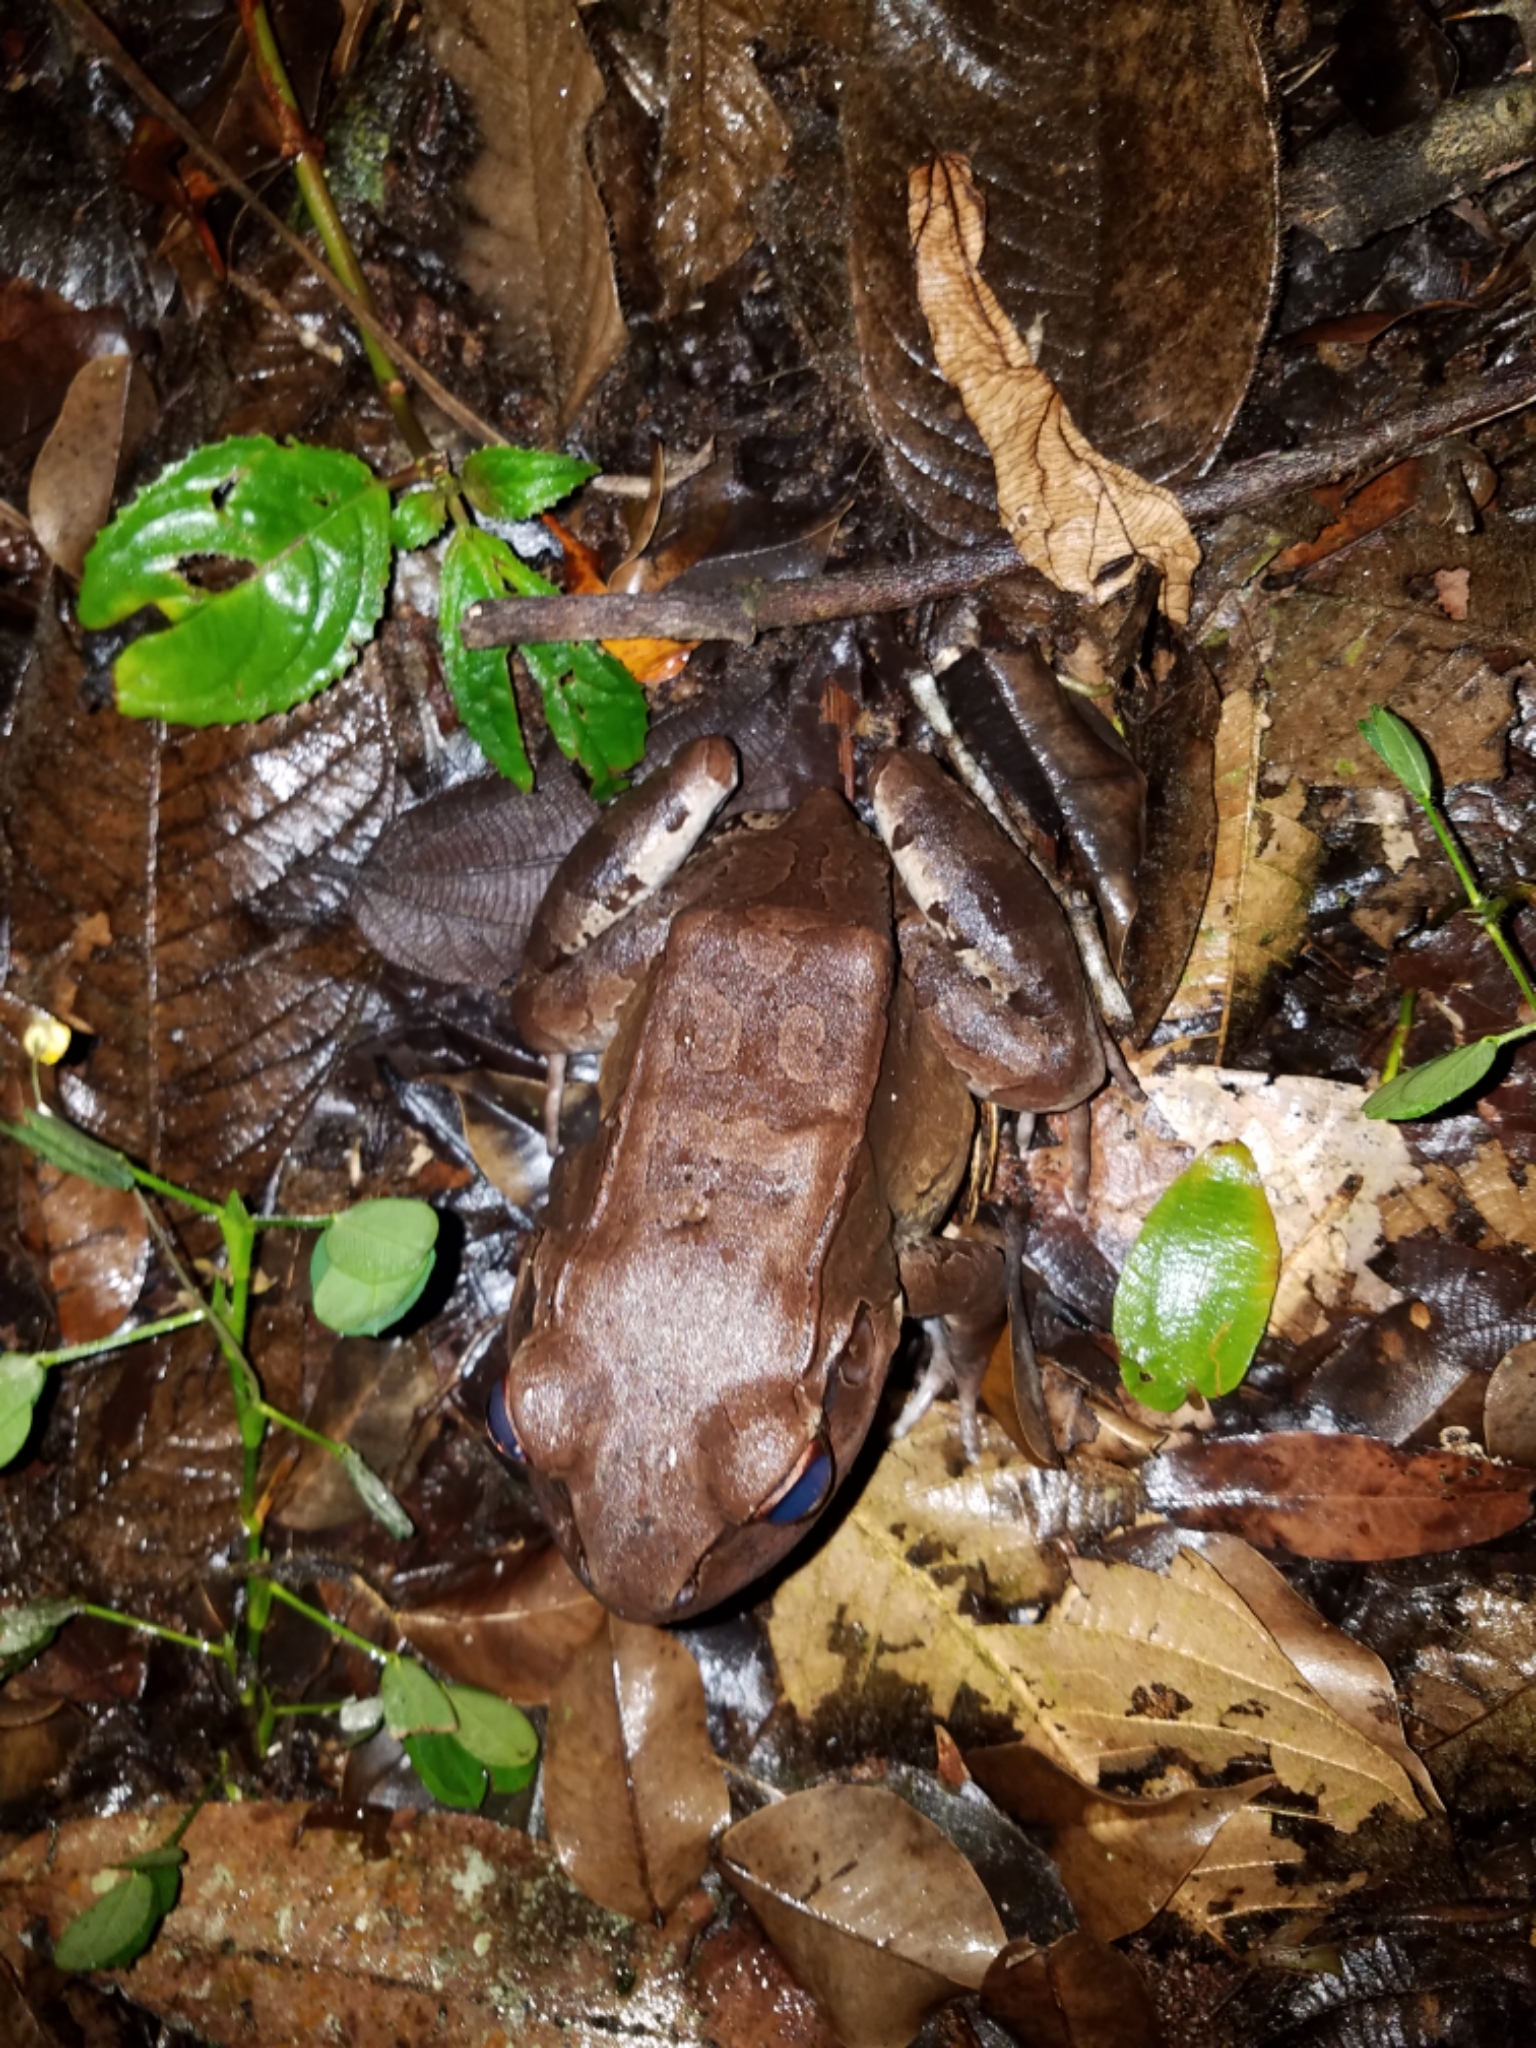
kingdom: Animalia
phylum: Chordata
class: Amphibia
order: Anura
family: Leptodactylidae
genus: Leptodactylus
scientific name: Leptodactylus savagei
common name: Savage's thin-toed frog
